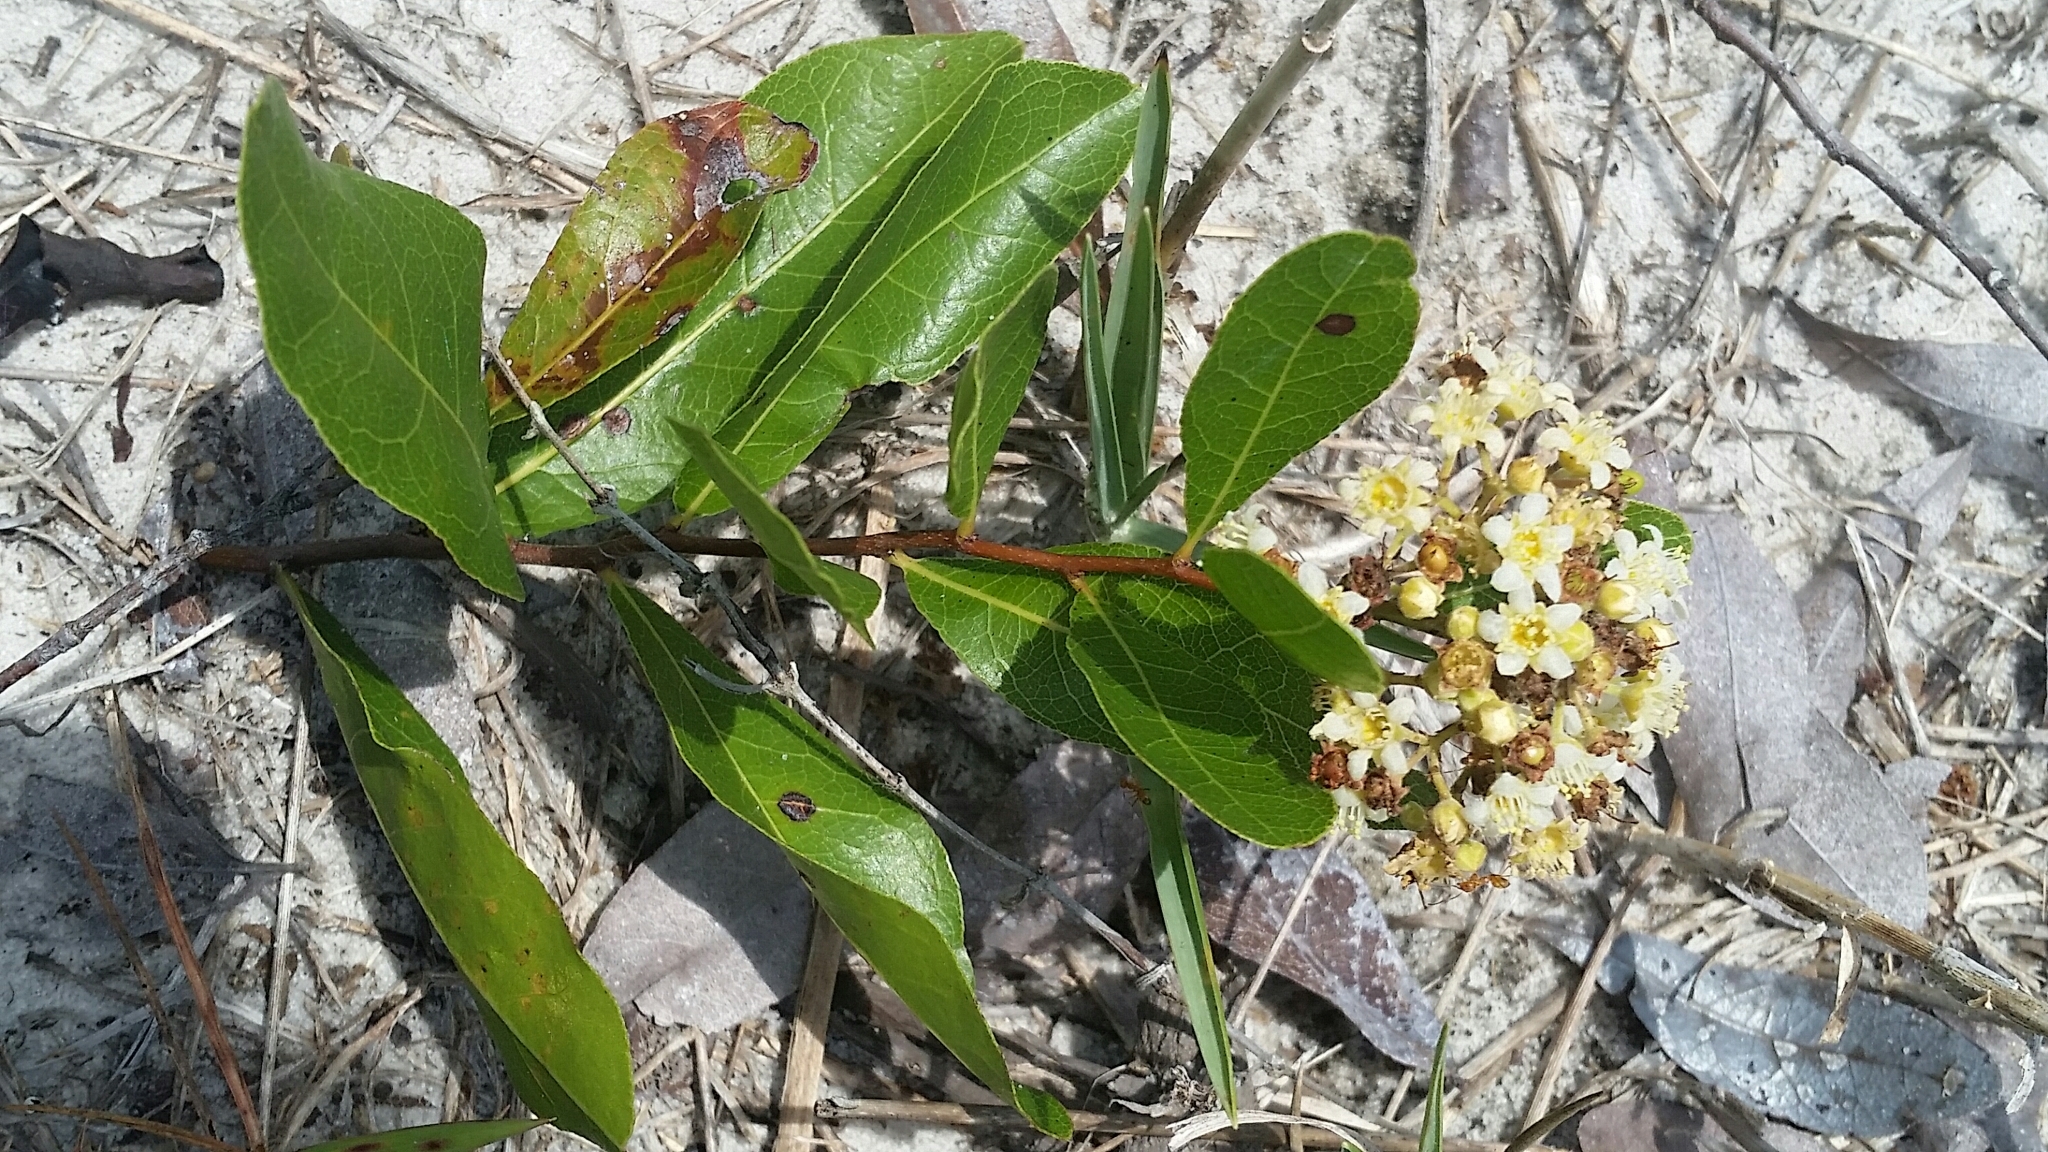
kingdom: Plantae
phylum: Tracheophyta
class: Magnoliopsida
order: Malpighiales
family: Chrysobalanaceae
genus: Geobalanus
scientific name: Geobalanus oblongifolius
